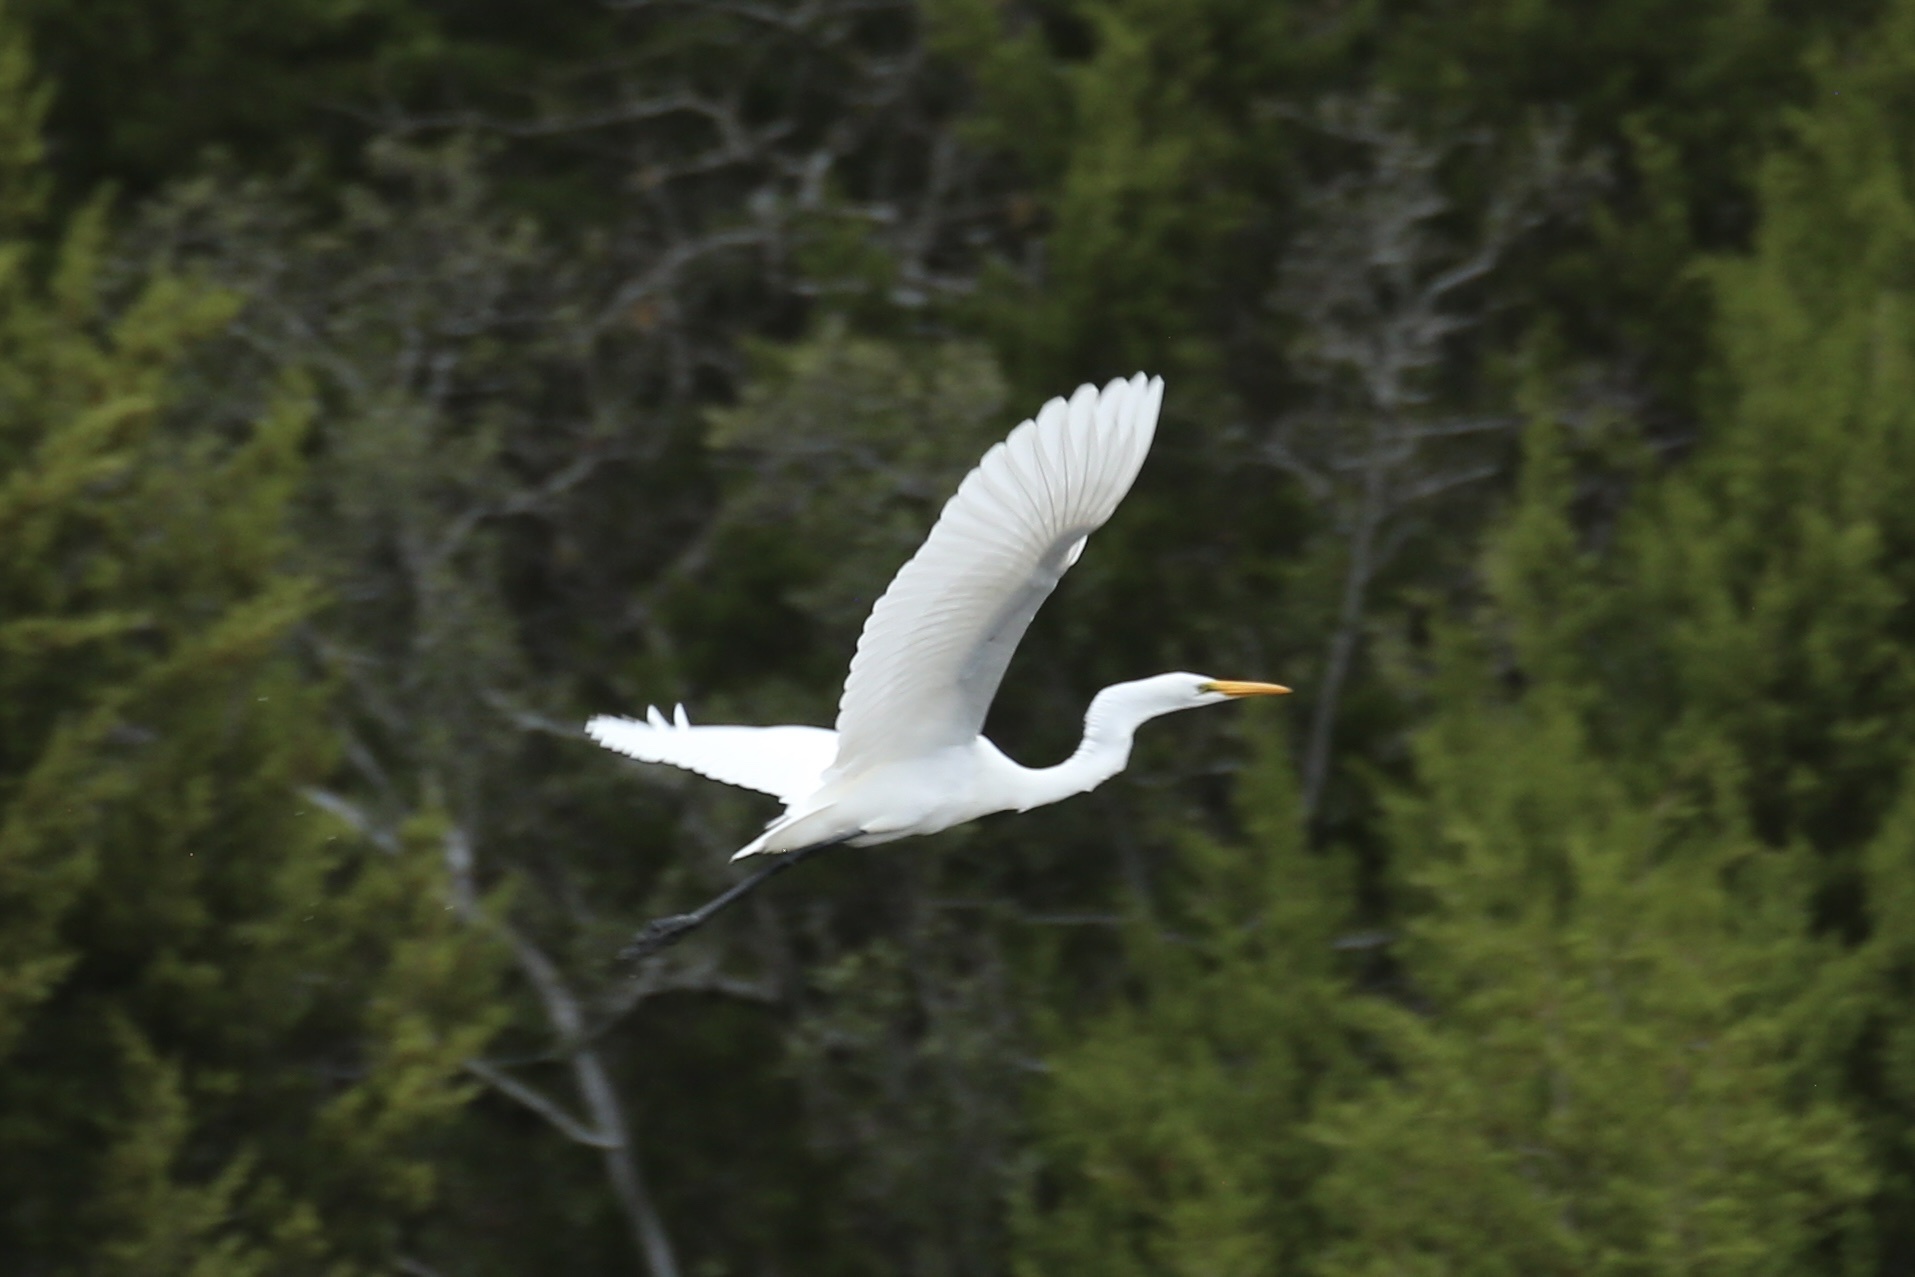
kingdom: Animalia
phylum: Chordata
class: Aves
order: Pelecaniformes
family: Ardeidae
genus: Ardea
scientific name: Ardea alba
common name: Great egret
